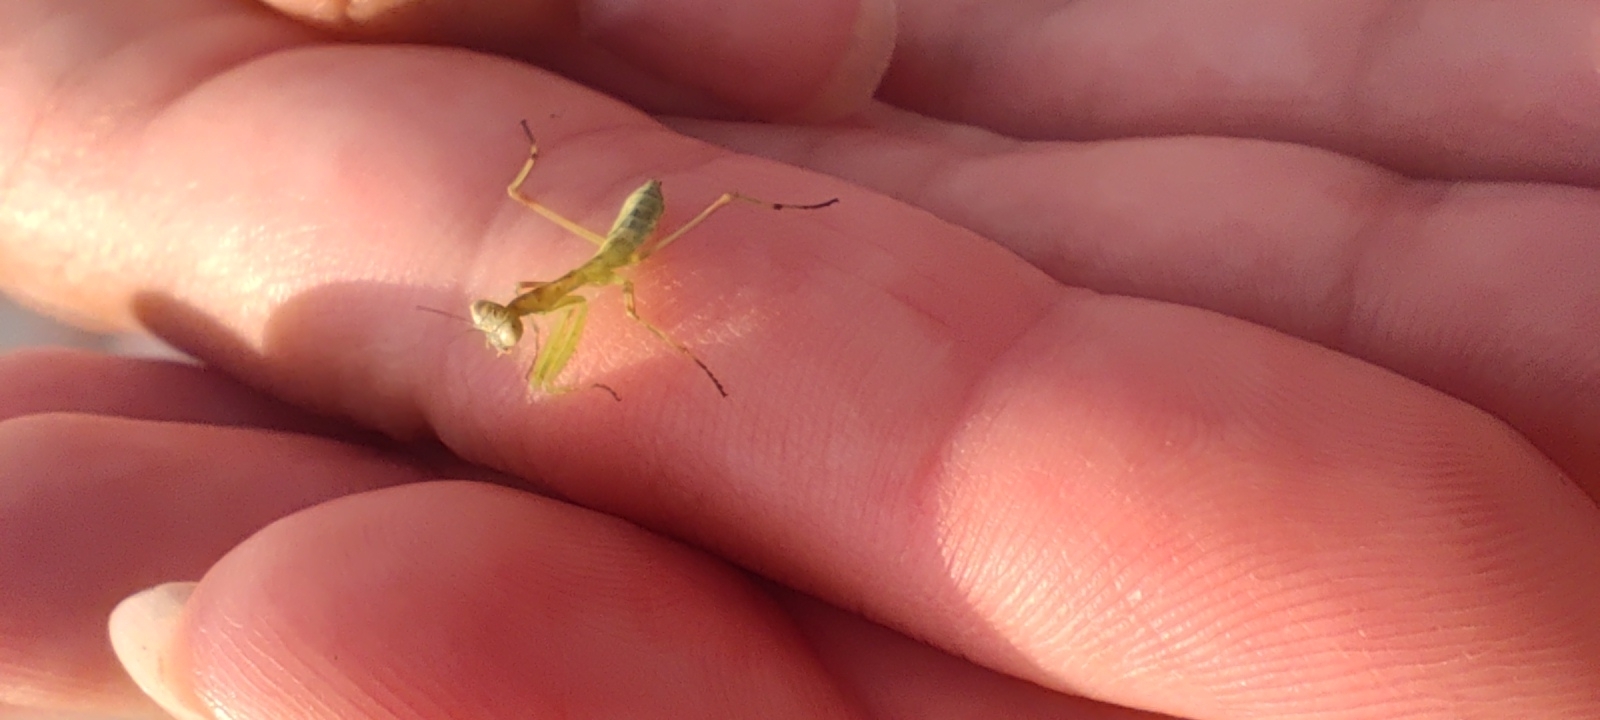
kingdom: Animalia
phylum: Arthropoda
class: Insecta
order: Mantodea
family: Mantidae
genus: Hierodula
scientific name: Hierodula transcaucasica
